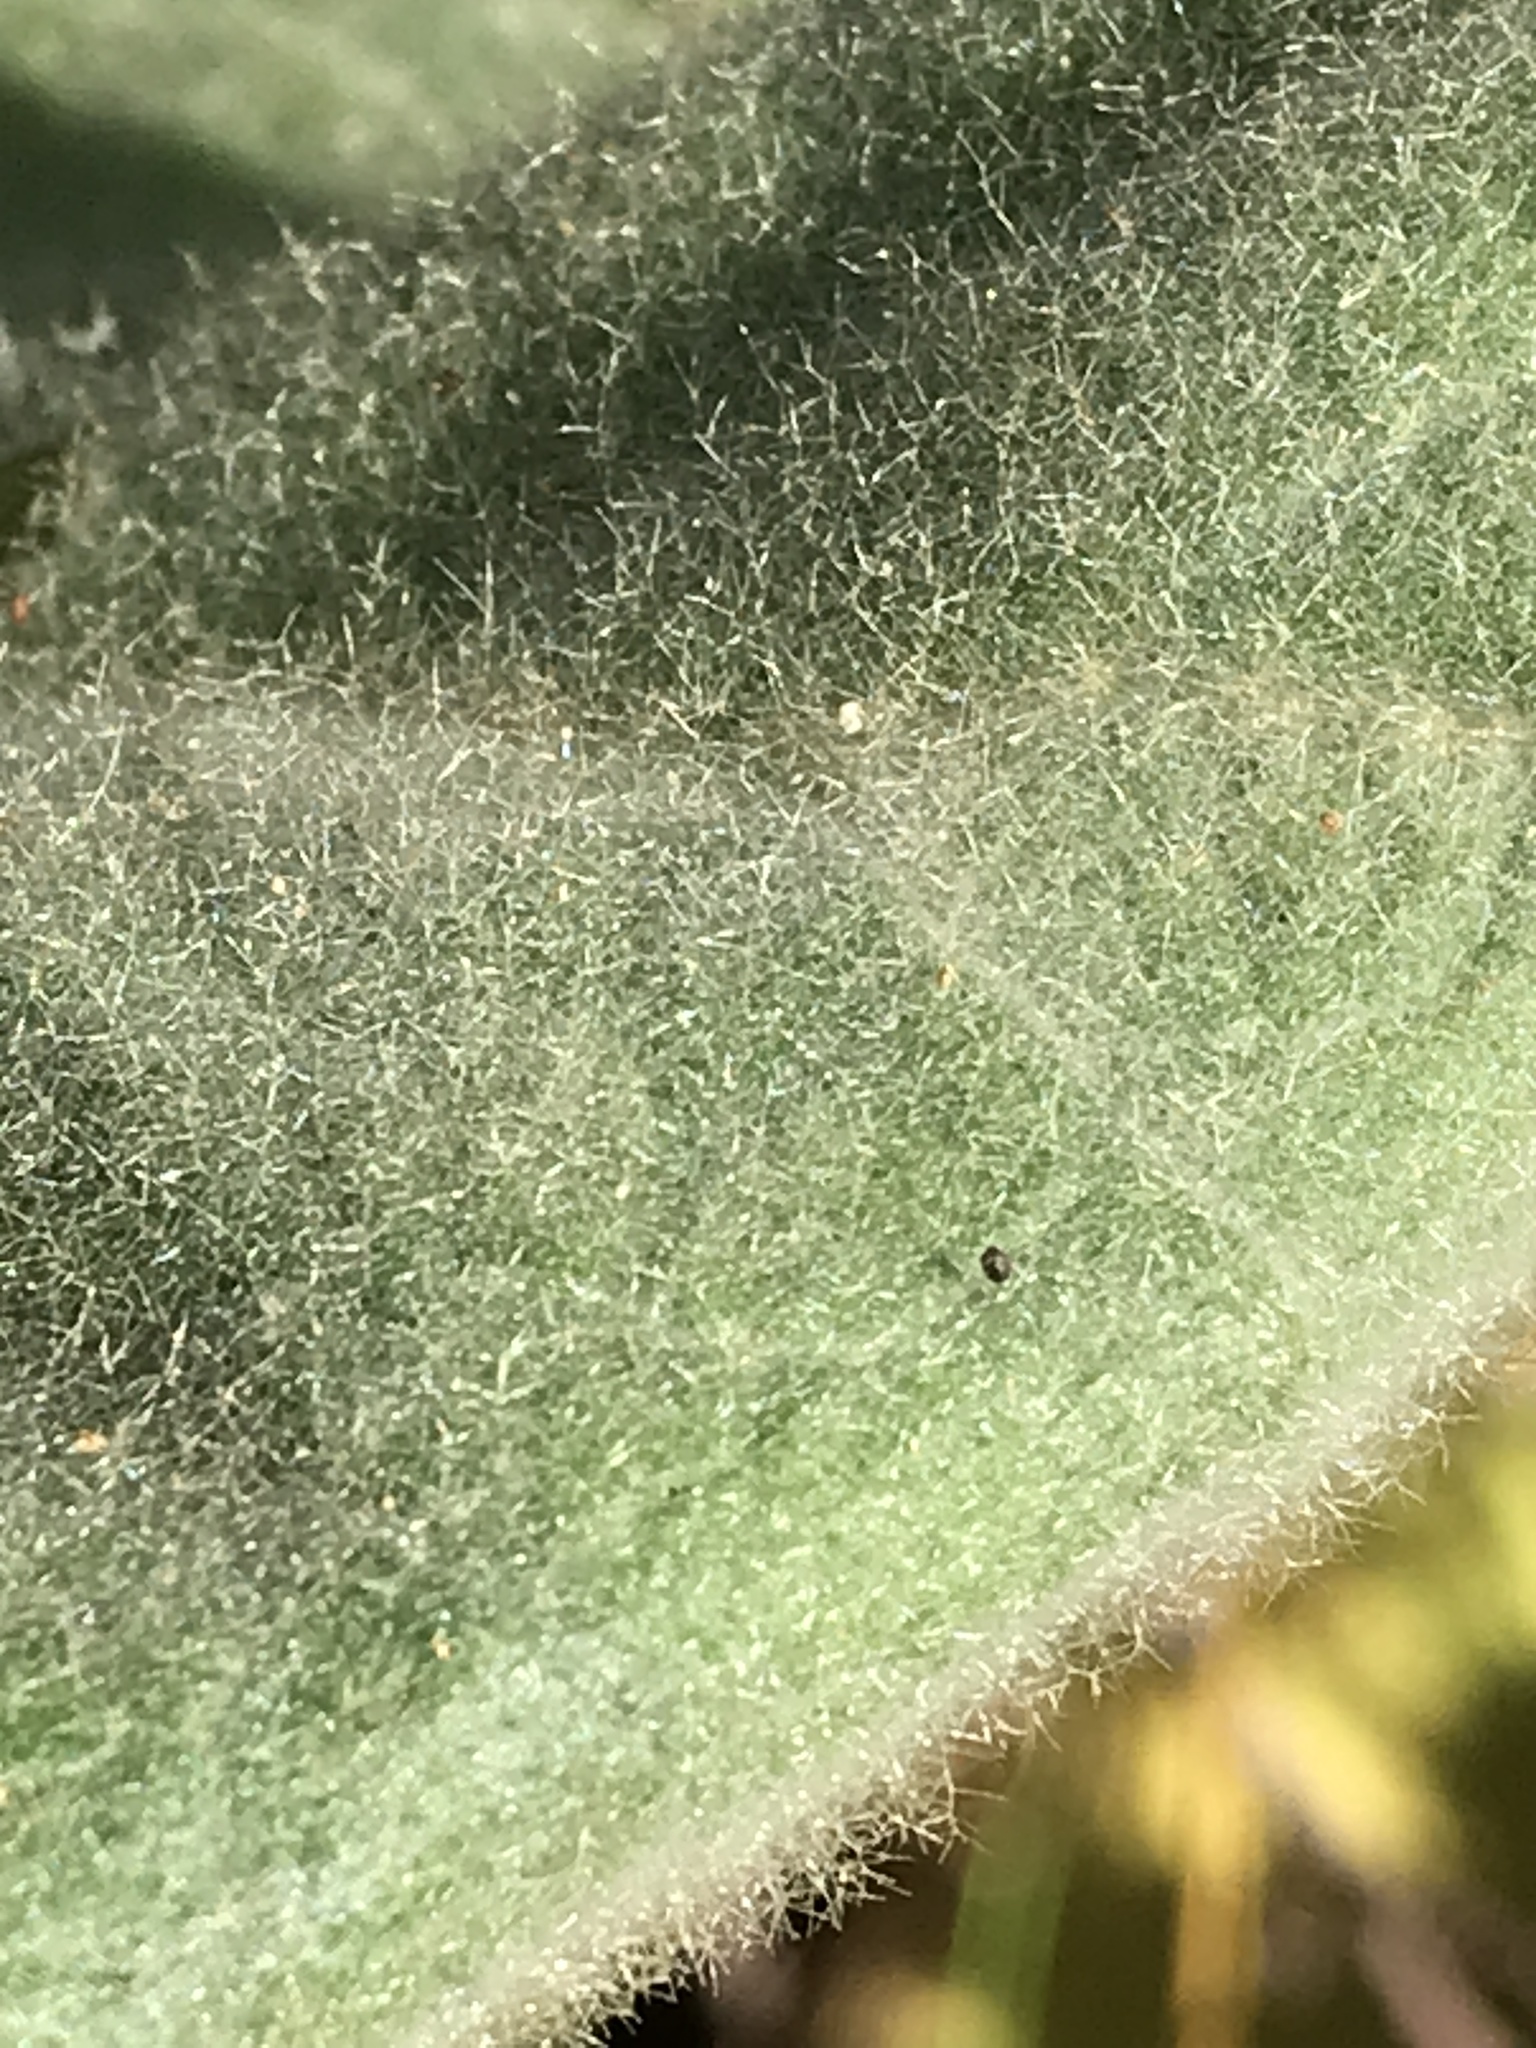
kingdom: Plantae
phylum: Tracheophyta
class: Magnoliopsida
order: Lamiales
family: Scrophulariaceae
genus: Verbascum
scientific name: Verbascum thapsus
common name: Common mullein
